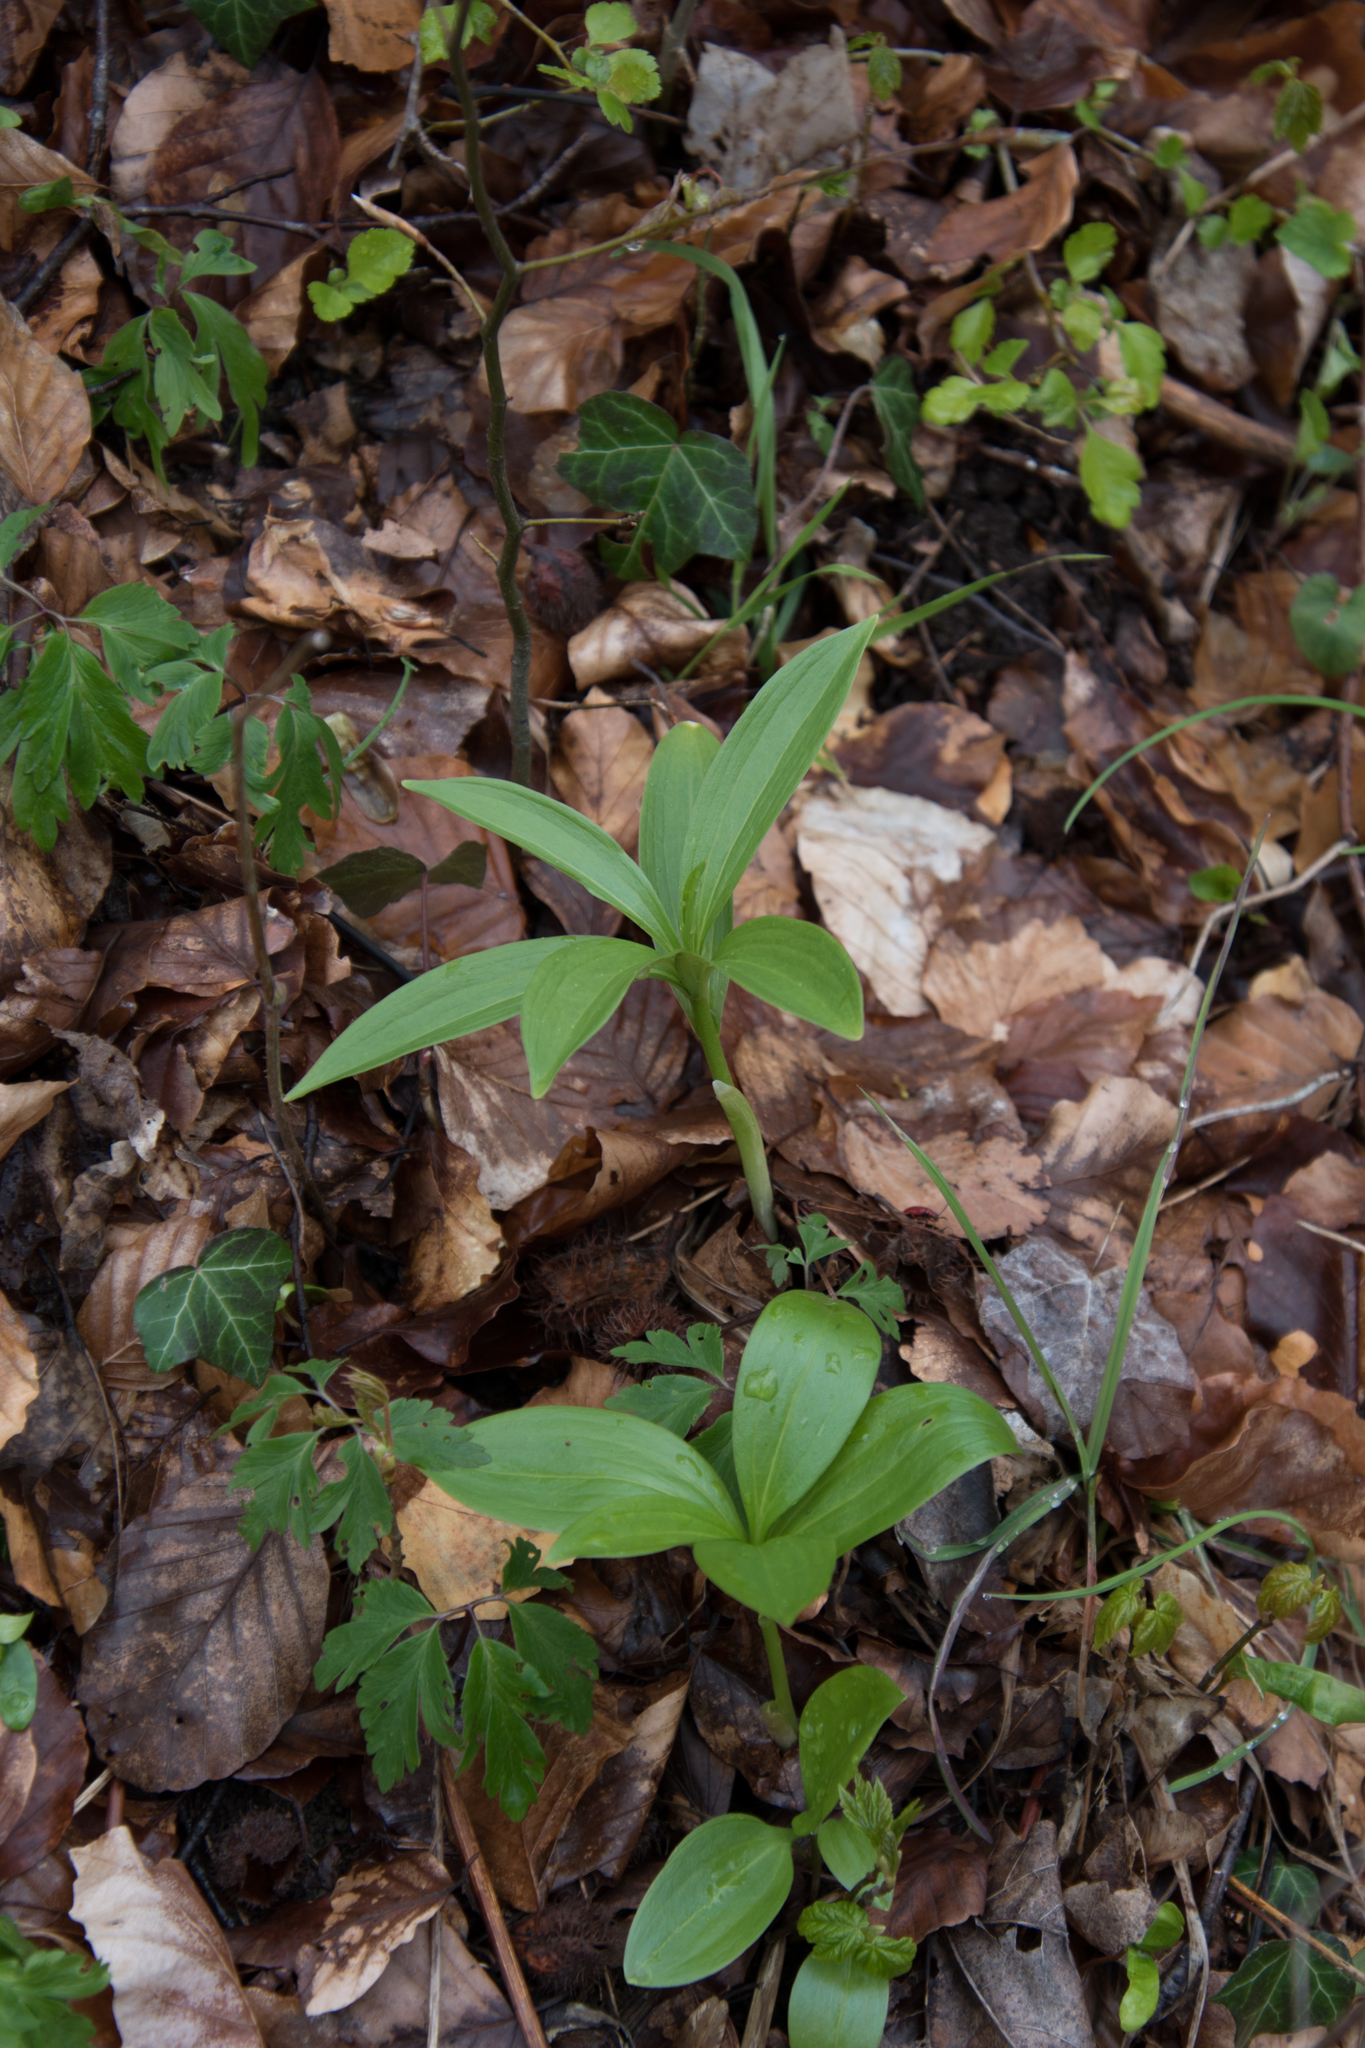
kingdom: Plantae
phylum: Tracheophyta
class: Liliopsida
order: Liliales
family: Liliaceae
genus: Lilium
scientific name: Lilium martagon
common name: Martagon lily
